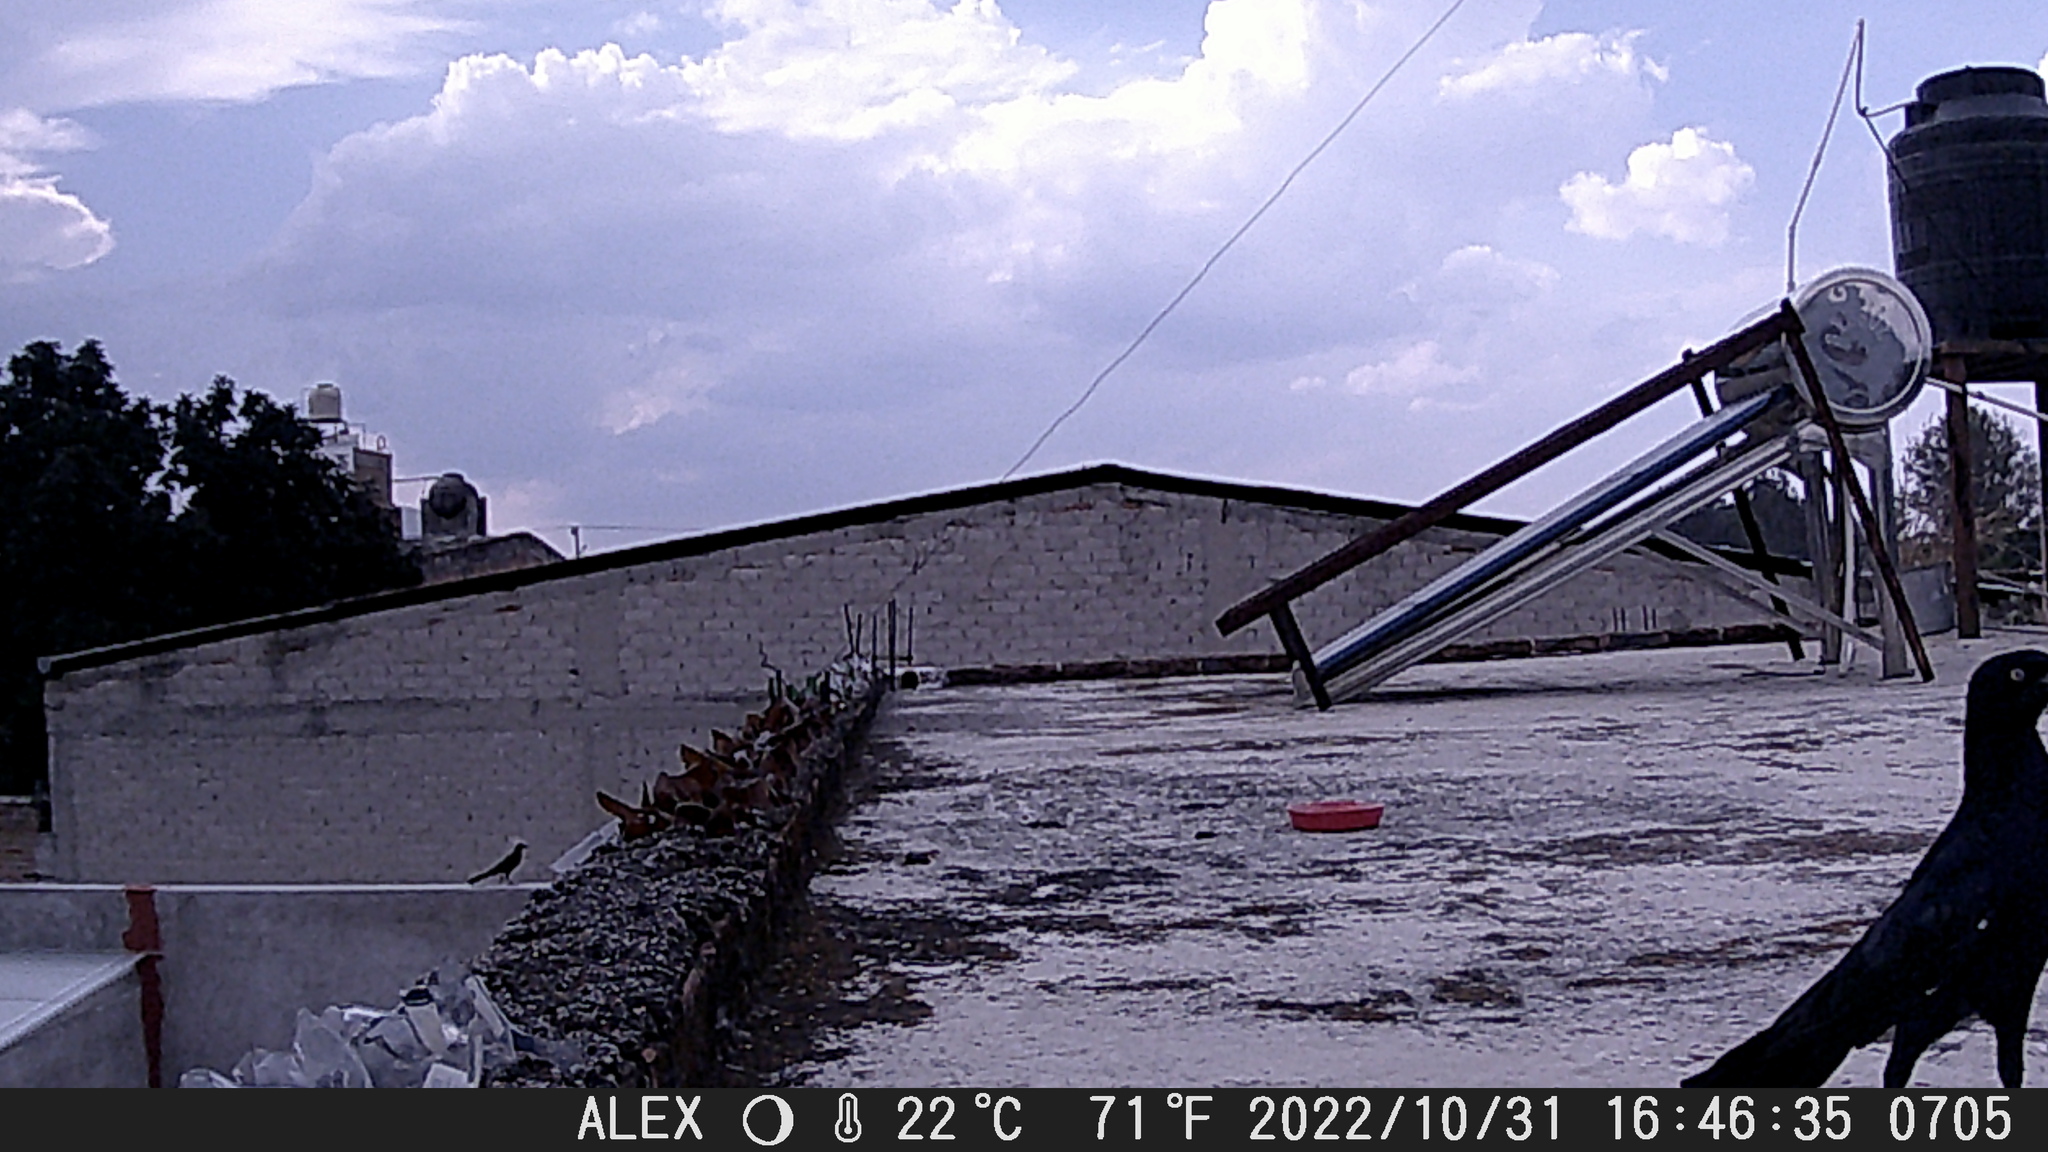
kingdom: Animalia
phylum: Chordata
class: Aves
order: Passeriformes
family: Icteridae
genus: Quiscalus
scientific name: Quiscalus mexicanus
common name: Great-tailed grackle
